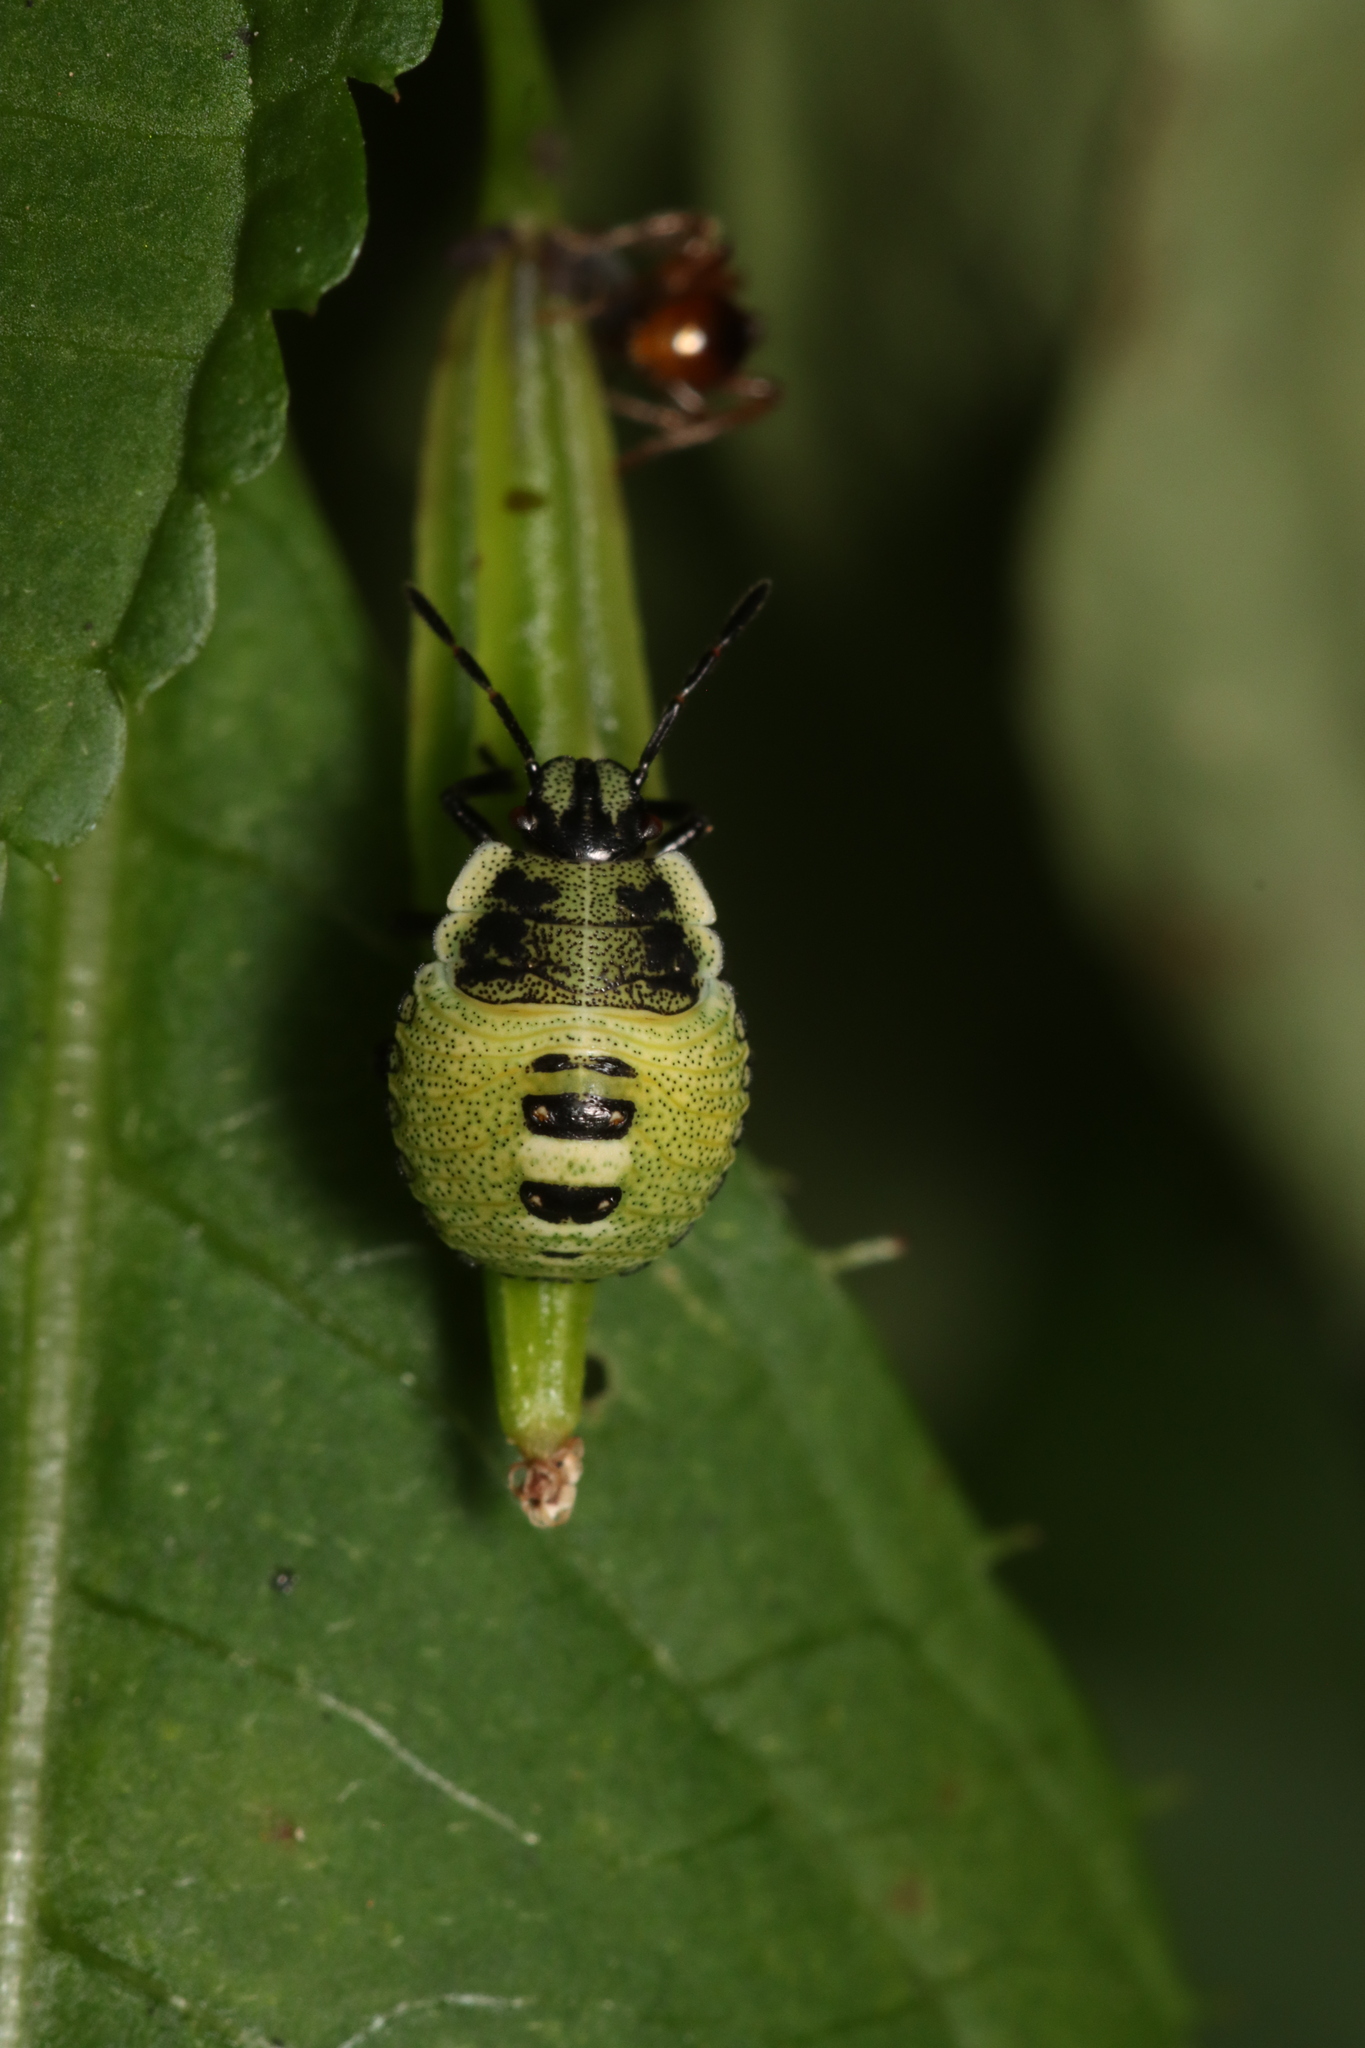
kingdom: Animalia
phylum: Arthropoda
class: Insecta
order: Hemiptera
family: Pentatomidae
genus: Palomena
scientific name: Palomena prasina
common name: Green shieldbug
